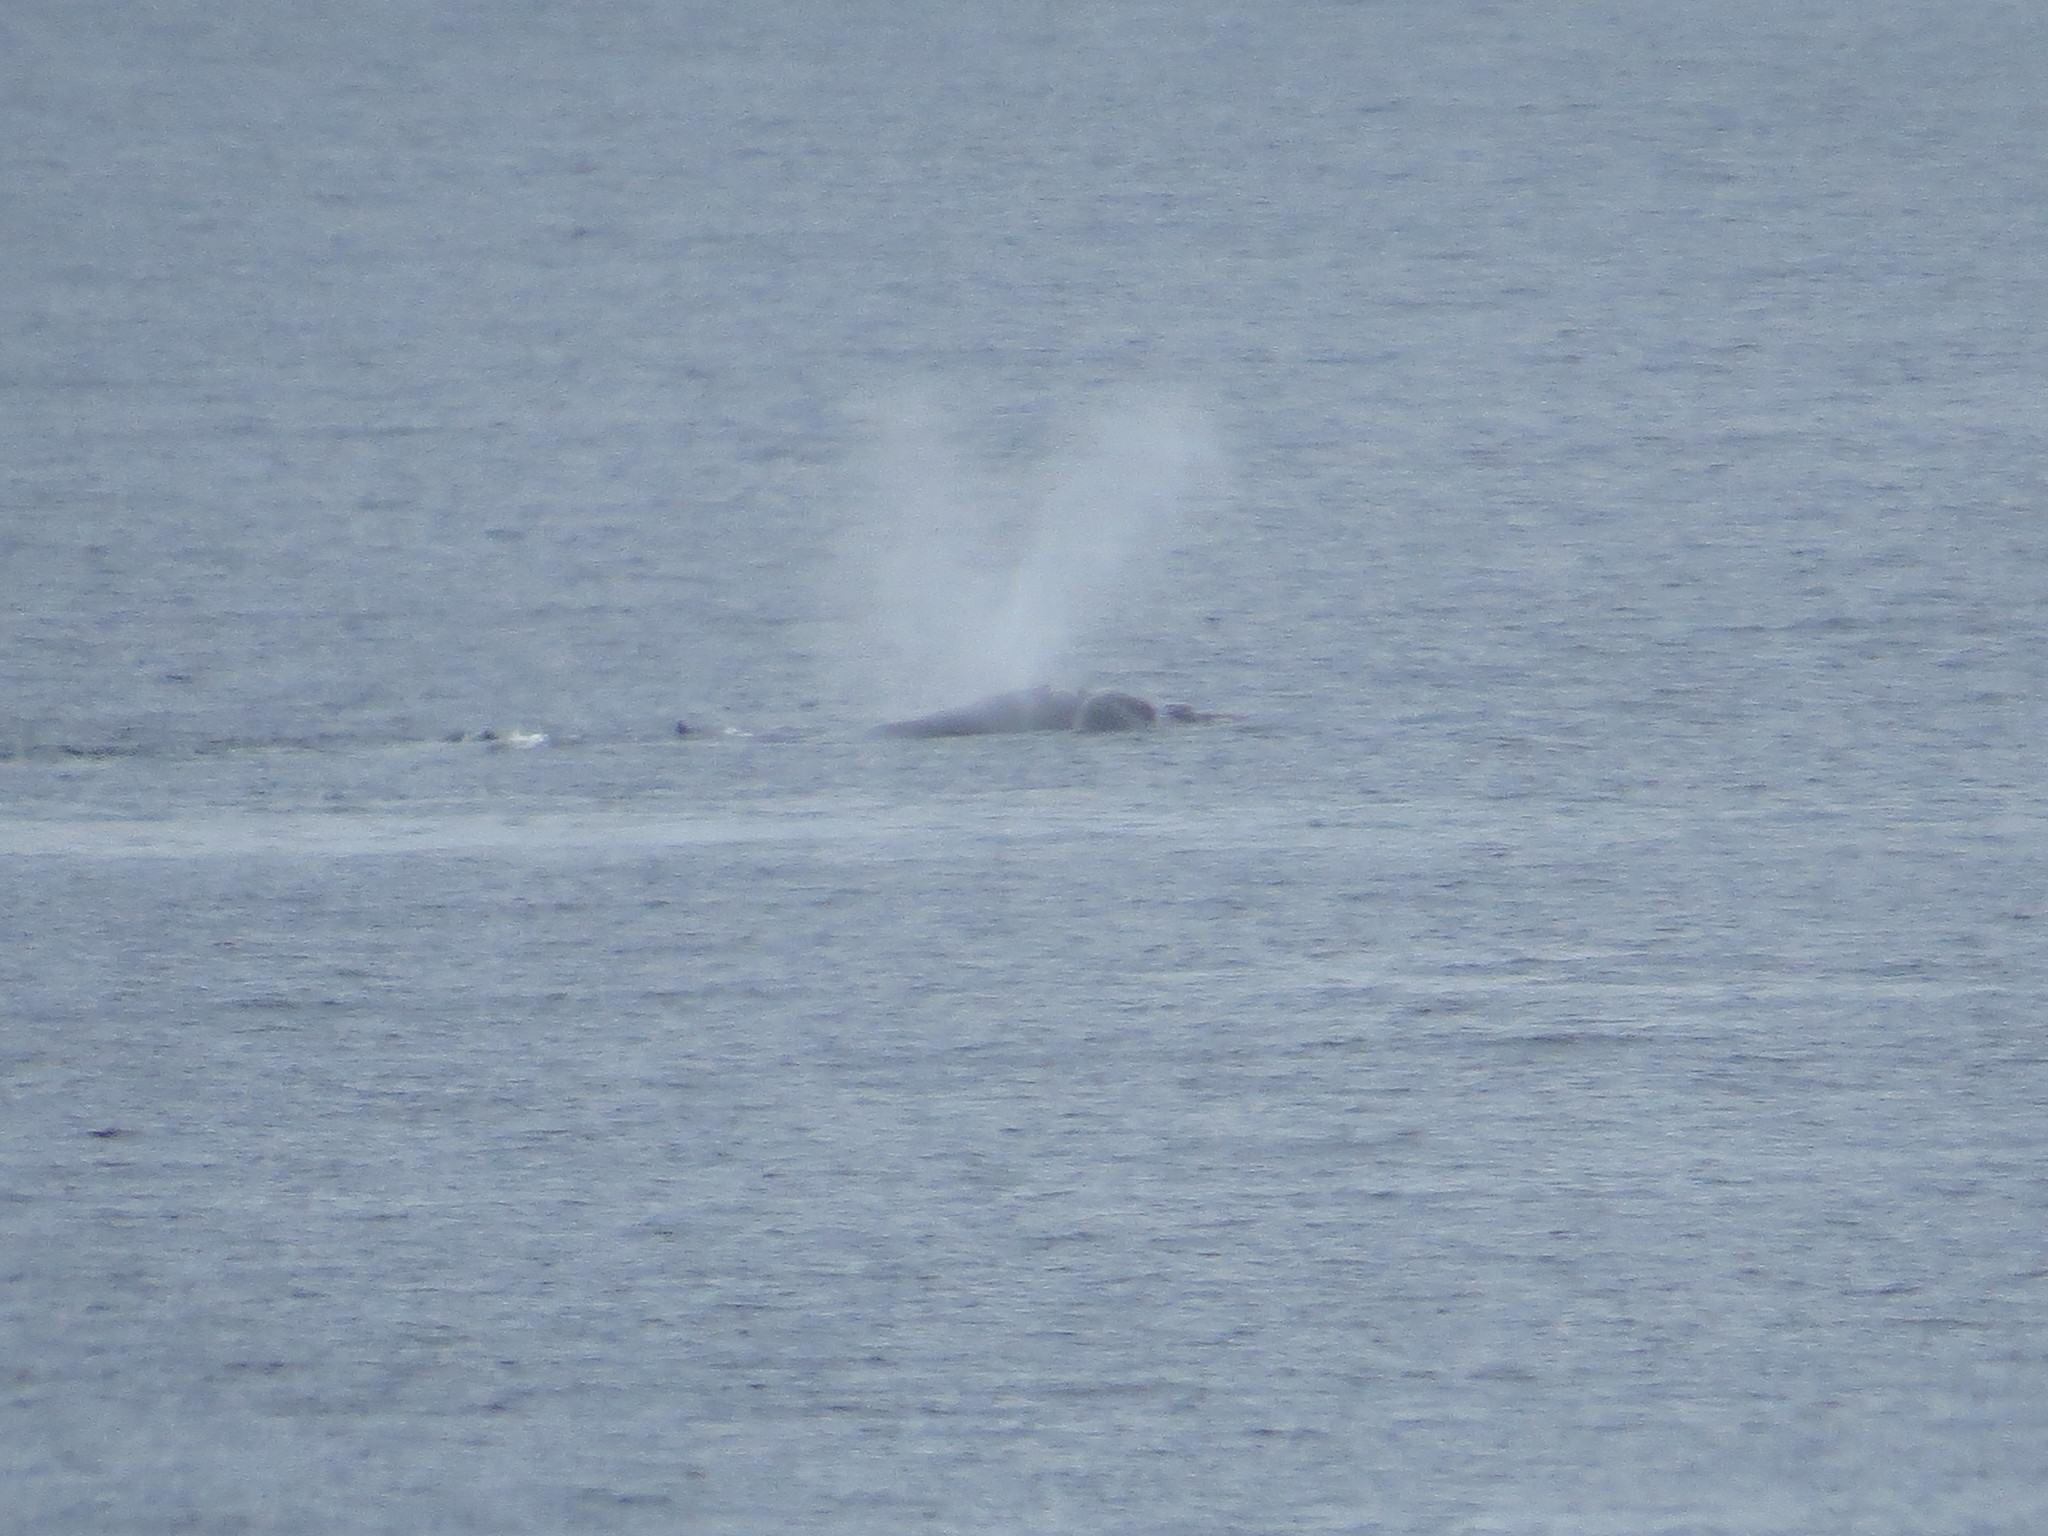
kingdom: Animalia
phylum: Chordata
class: Mammalia
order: Cetacea
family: Balaenidae
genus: Eubalaena
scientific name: Eubalaena australis
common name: Southern right whale
